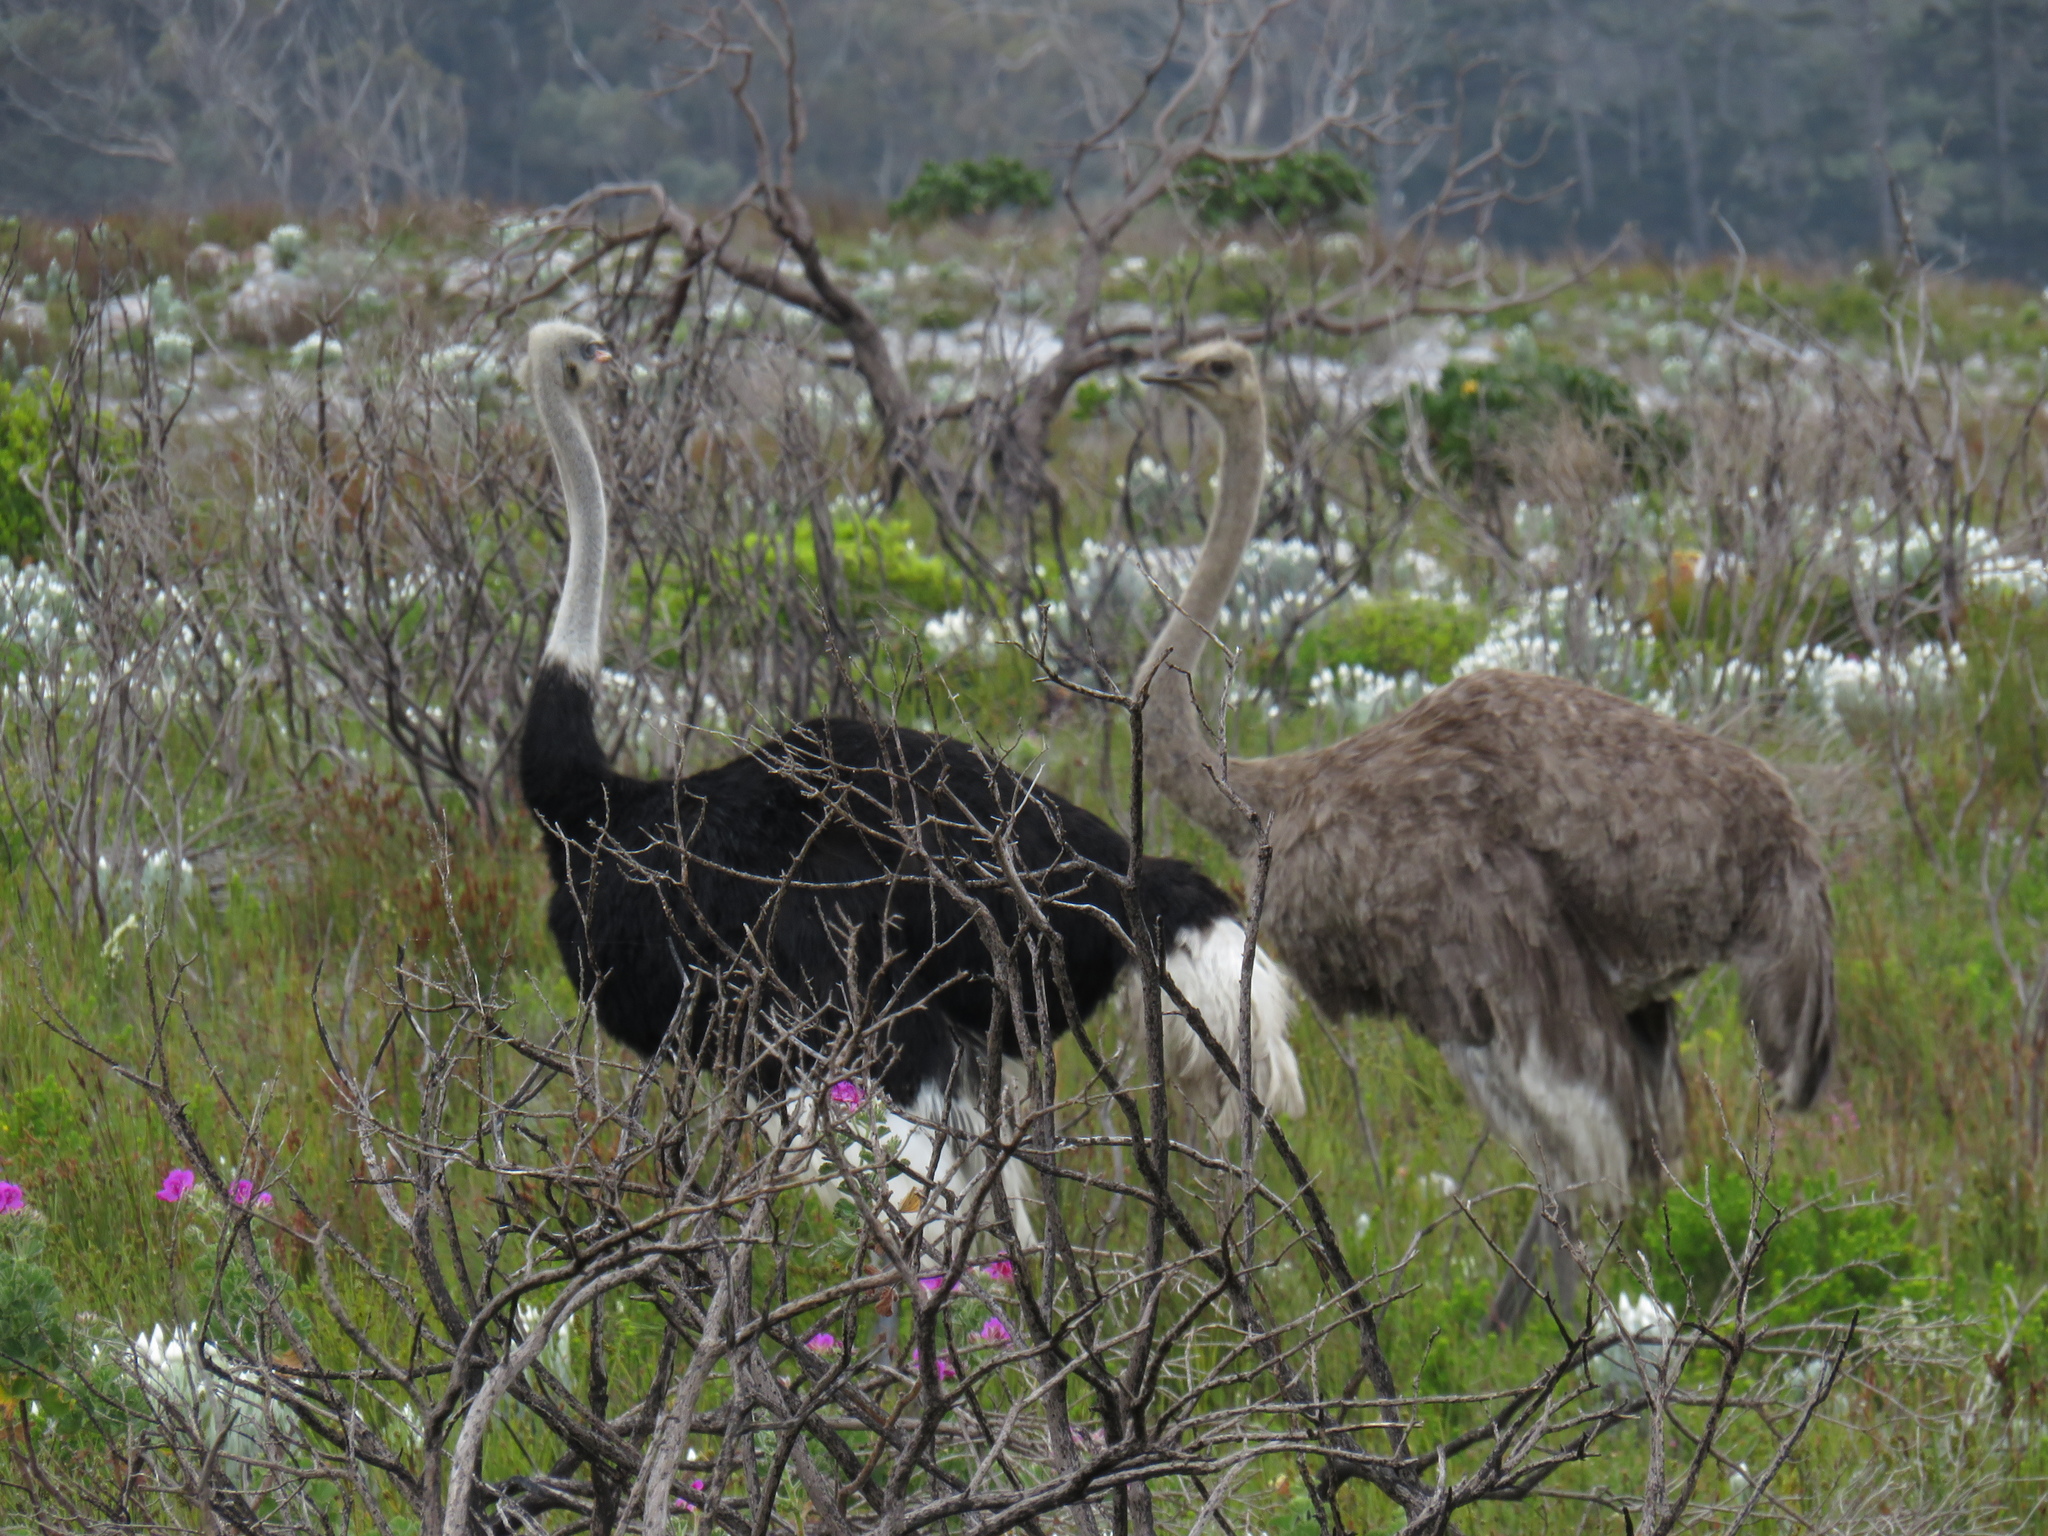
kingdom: Animalia
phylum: Chordata
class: Aves
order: Struthioniformes
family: Struthionidae
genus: Struthio
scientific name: Struthio camelus
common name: Common ostrich
